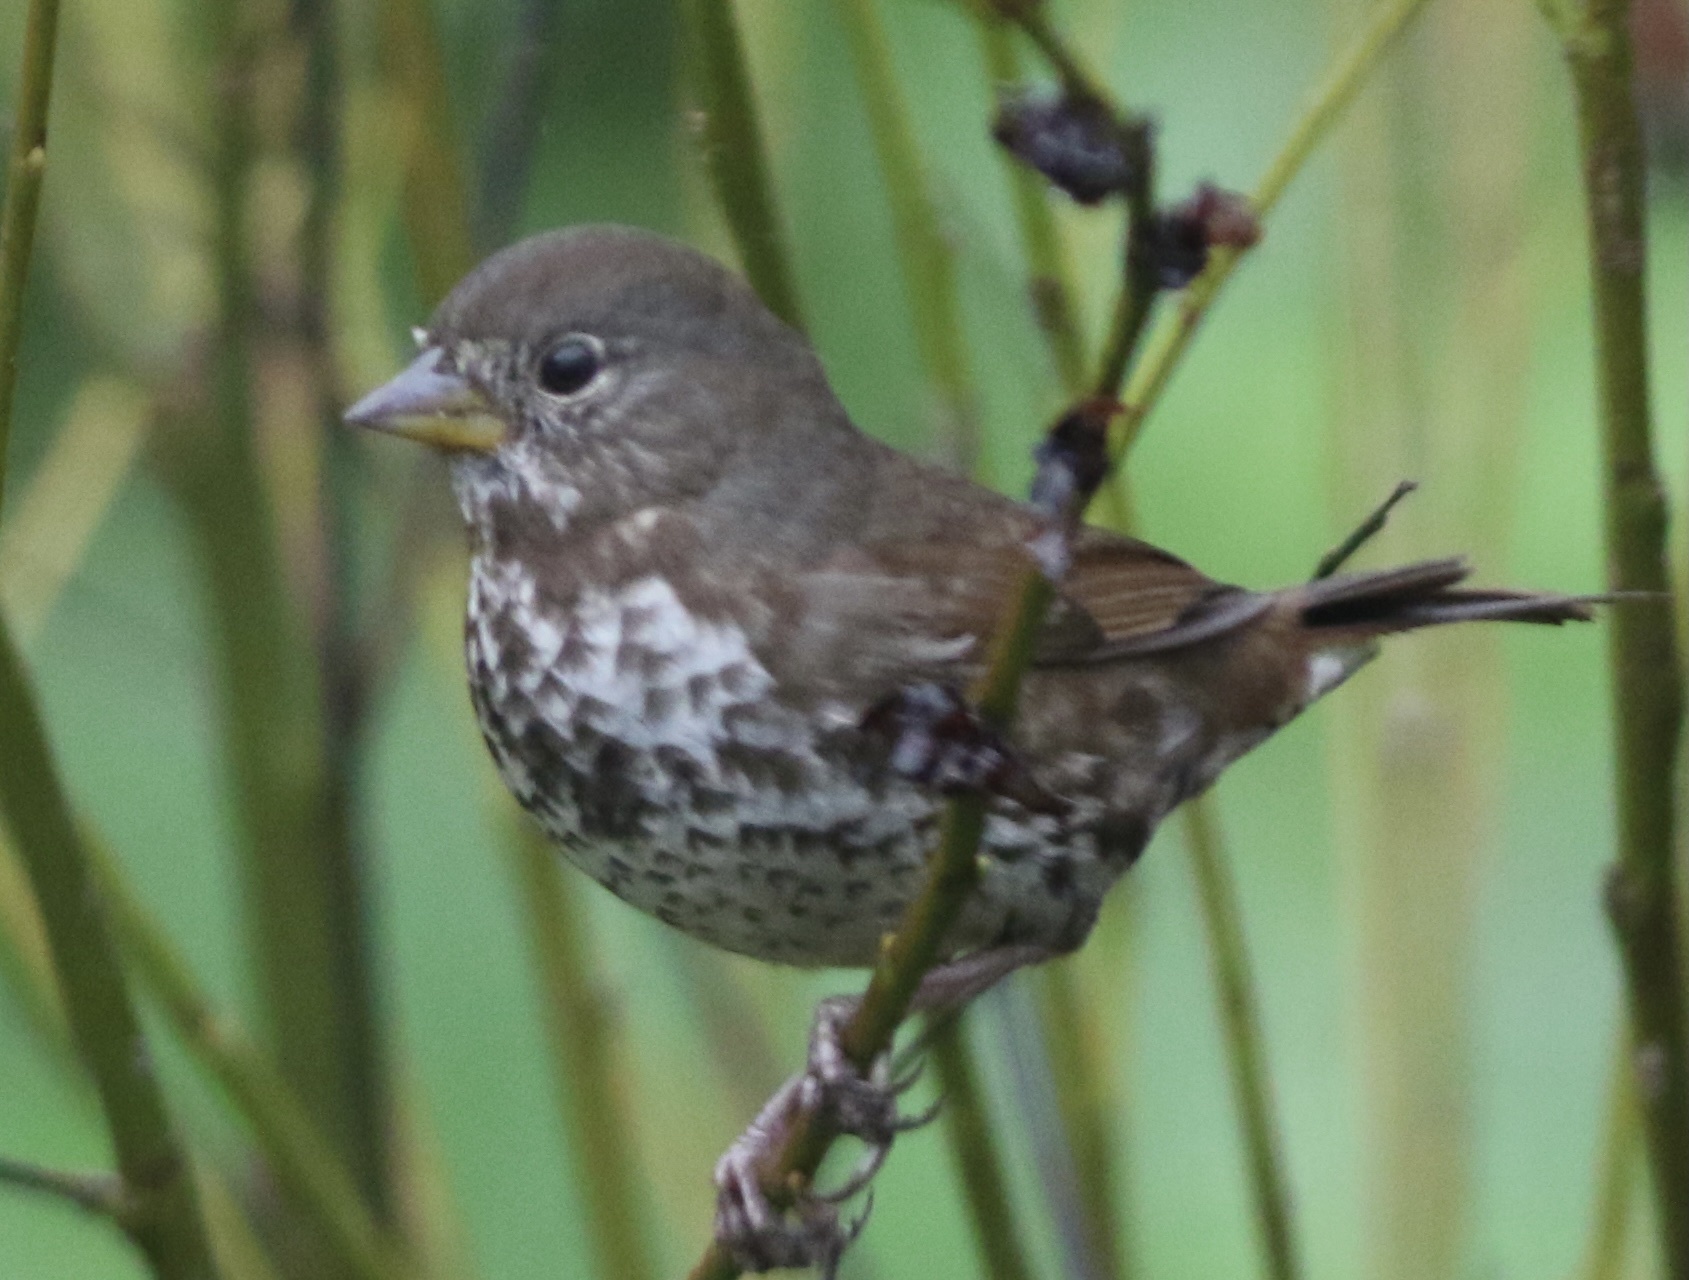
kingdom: Animalia
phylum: Chordata
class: Aves
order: Passeriformes
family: Passerellidae
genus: Passerella
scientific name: Passerella iliaca
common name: Fox sparrow
